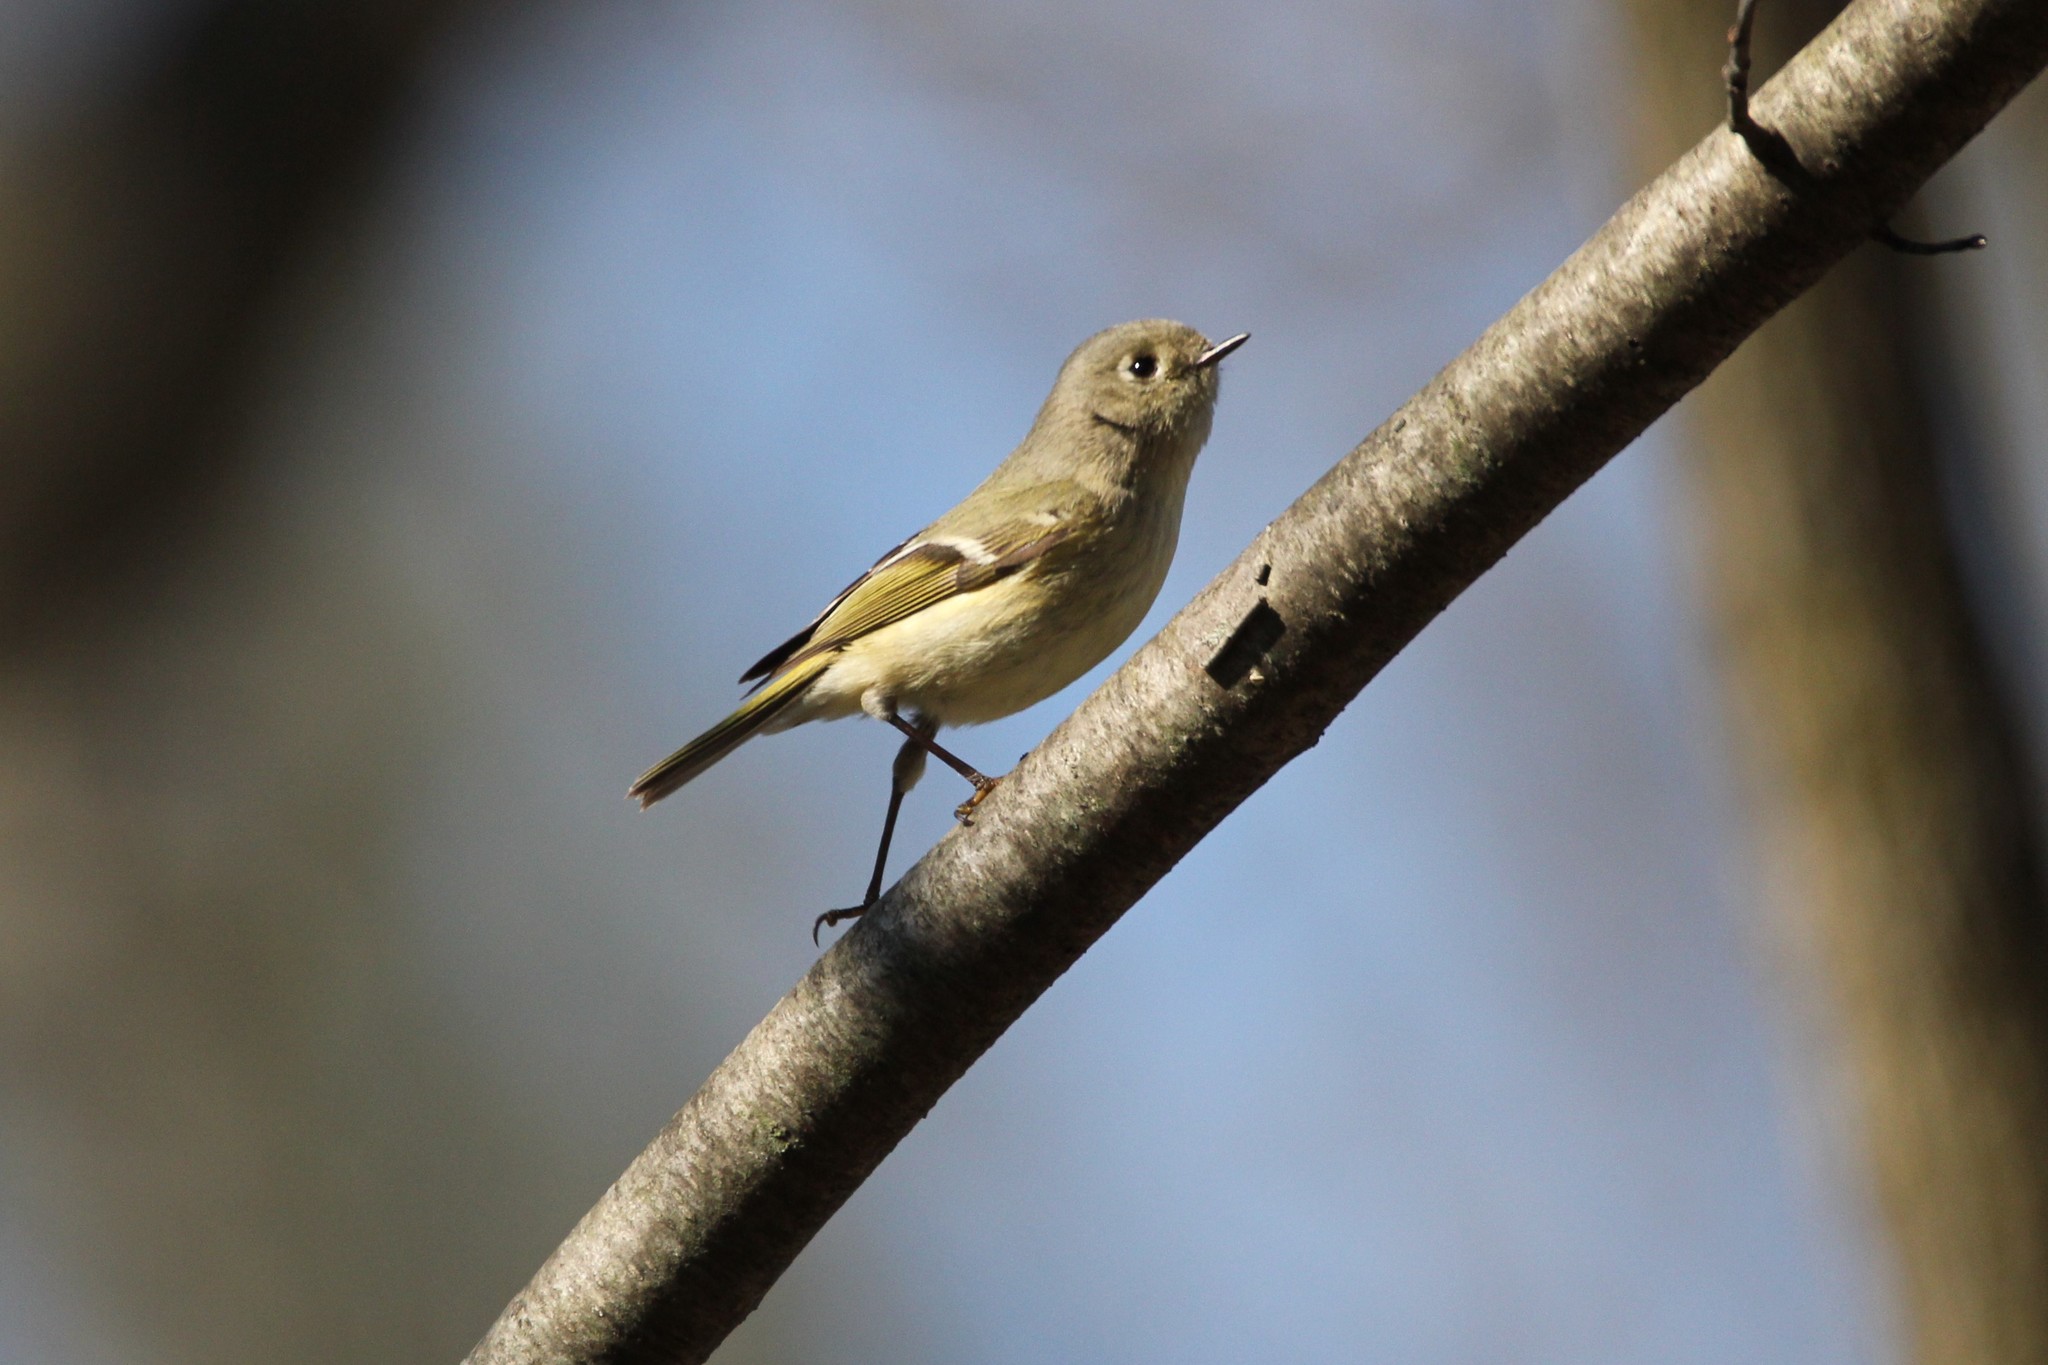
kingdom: Animalia
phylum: Chordata
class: Aves
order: Passeriformes
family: Regulidae
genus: Regulus
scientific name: Regulus calendula
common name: Ruby-crowned kinglet
